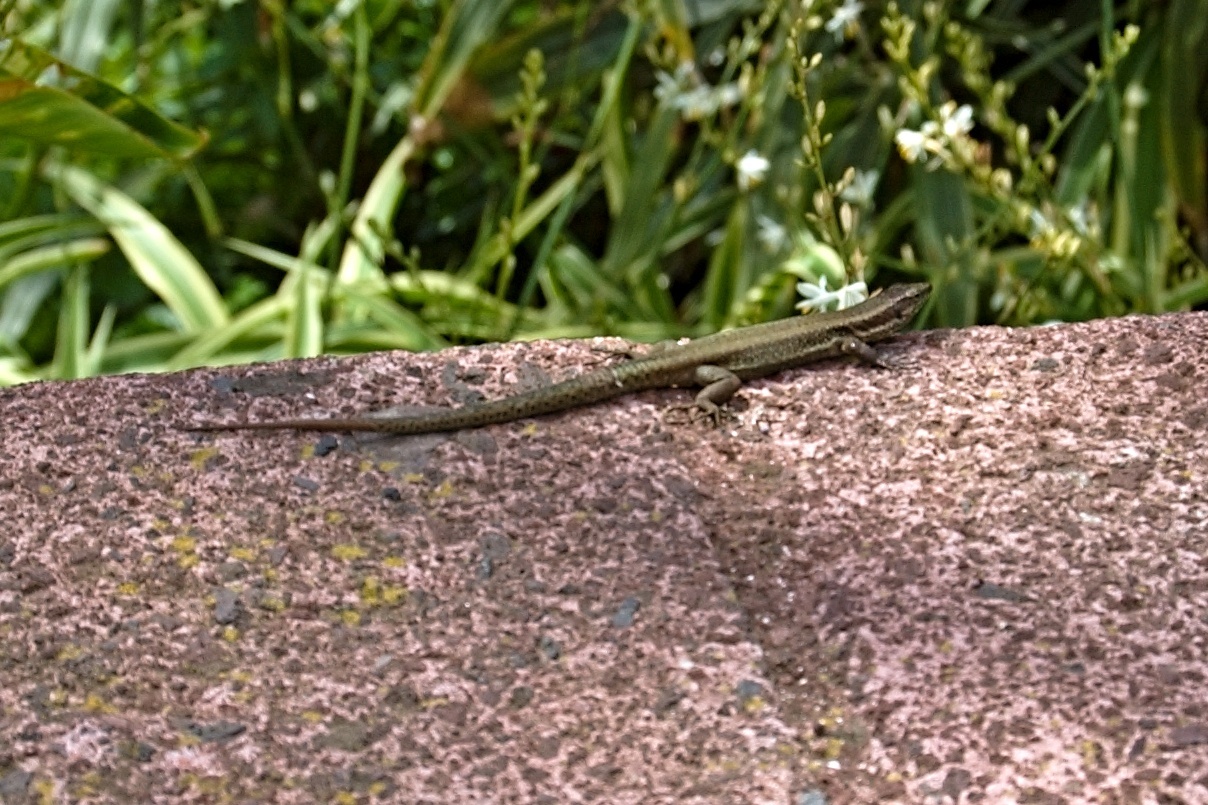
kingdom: Animalia
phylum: Chordata
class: Squamata
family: Lacertidae
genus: Teira
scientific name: Teira dugesii
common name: Madeira lizard
